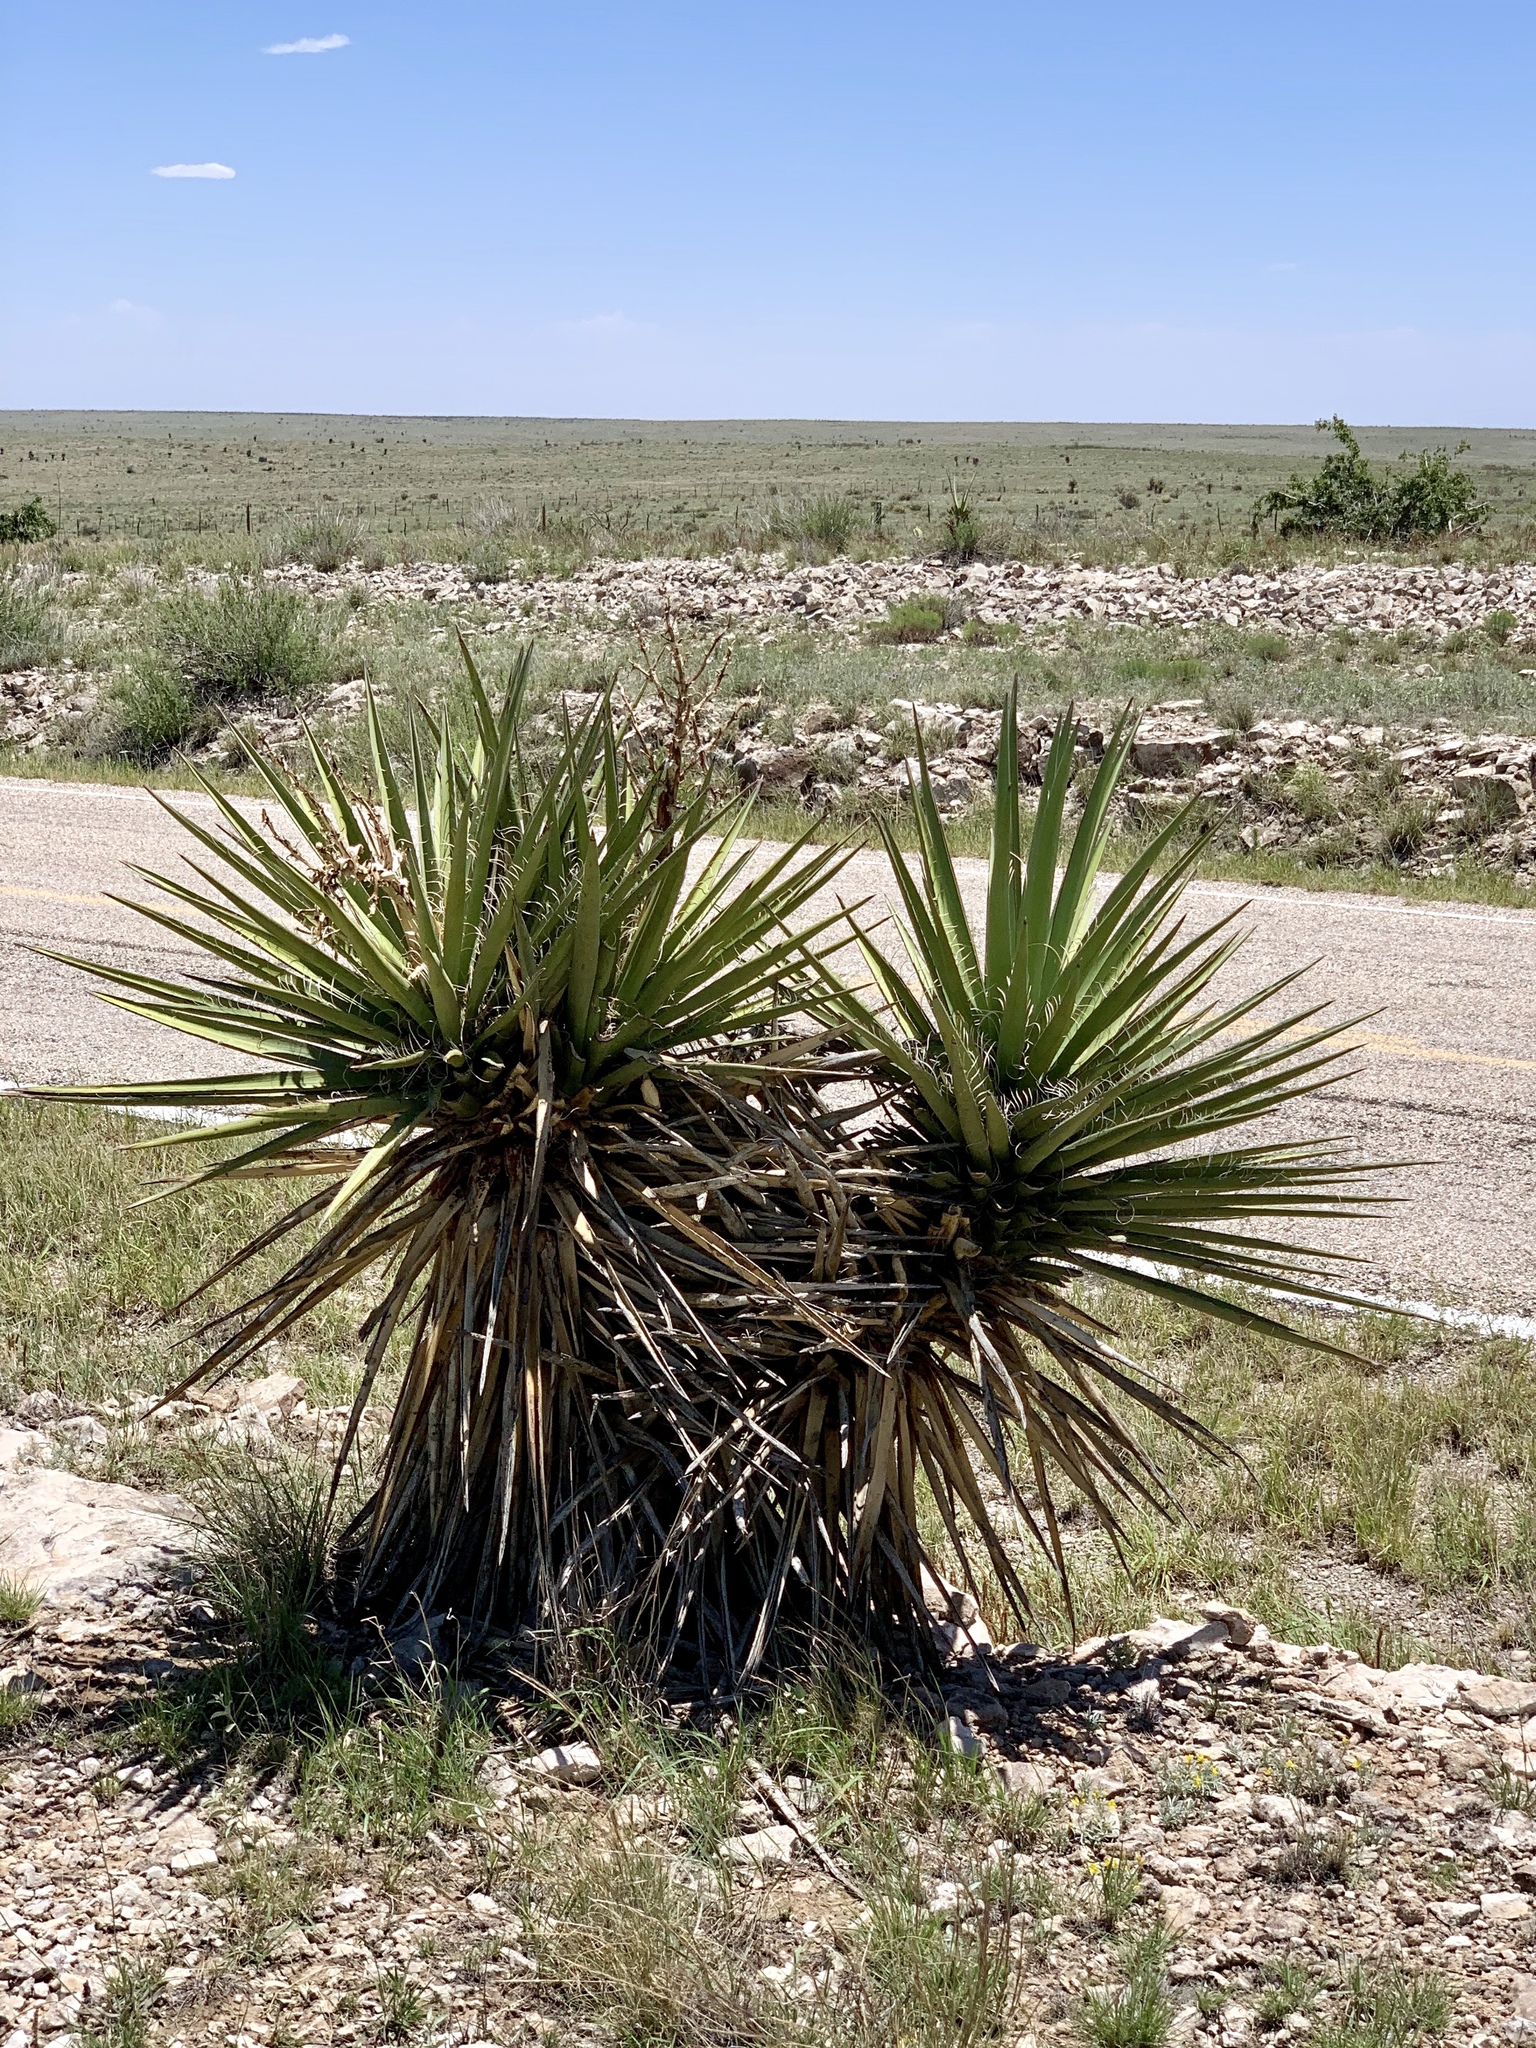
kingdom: Plantae
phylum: Tracheophyta
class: Liliopsida
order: Asparagales
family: Asparagaceae
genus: Yucca
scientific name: Yucca treculiana
